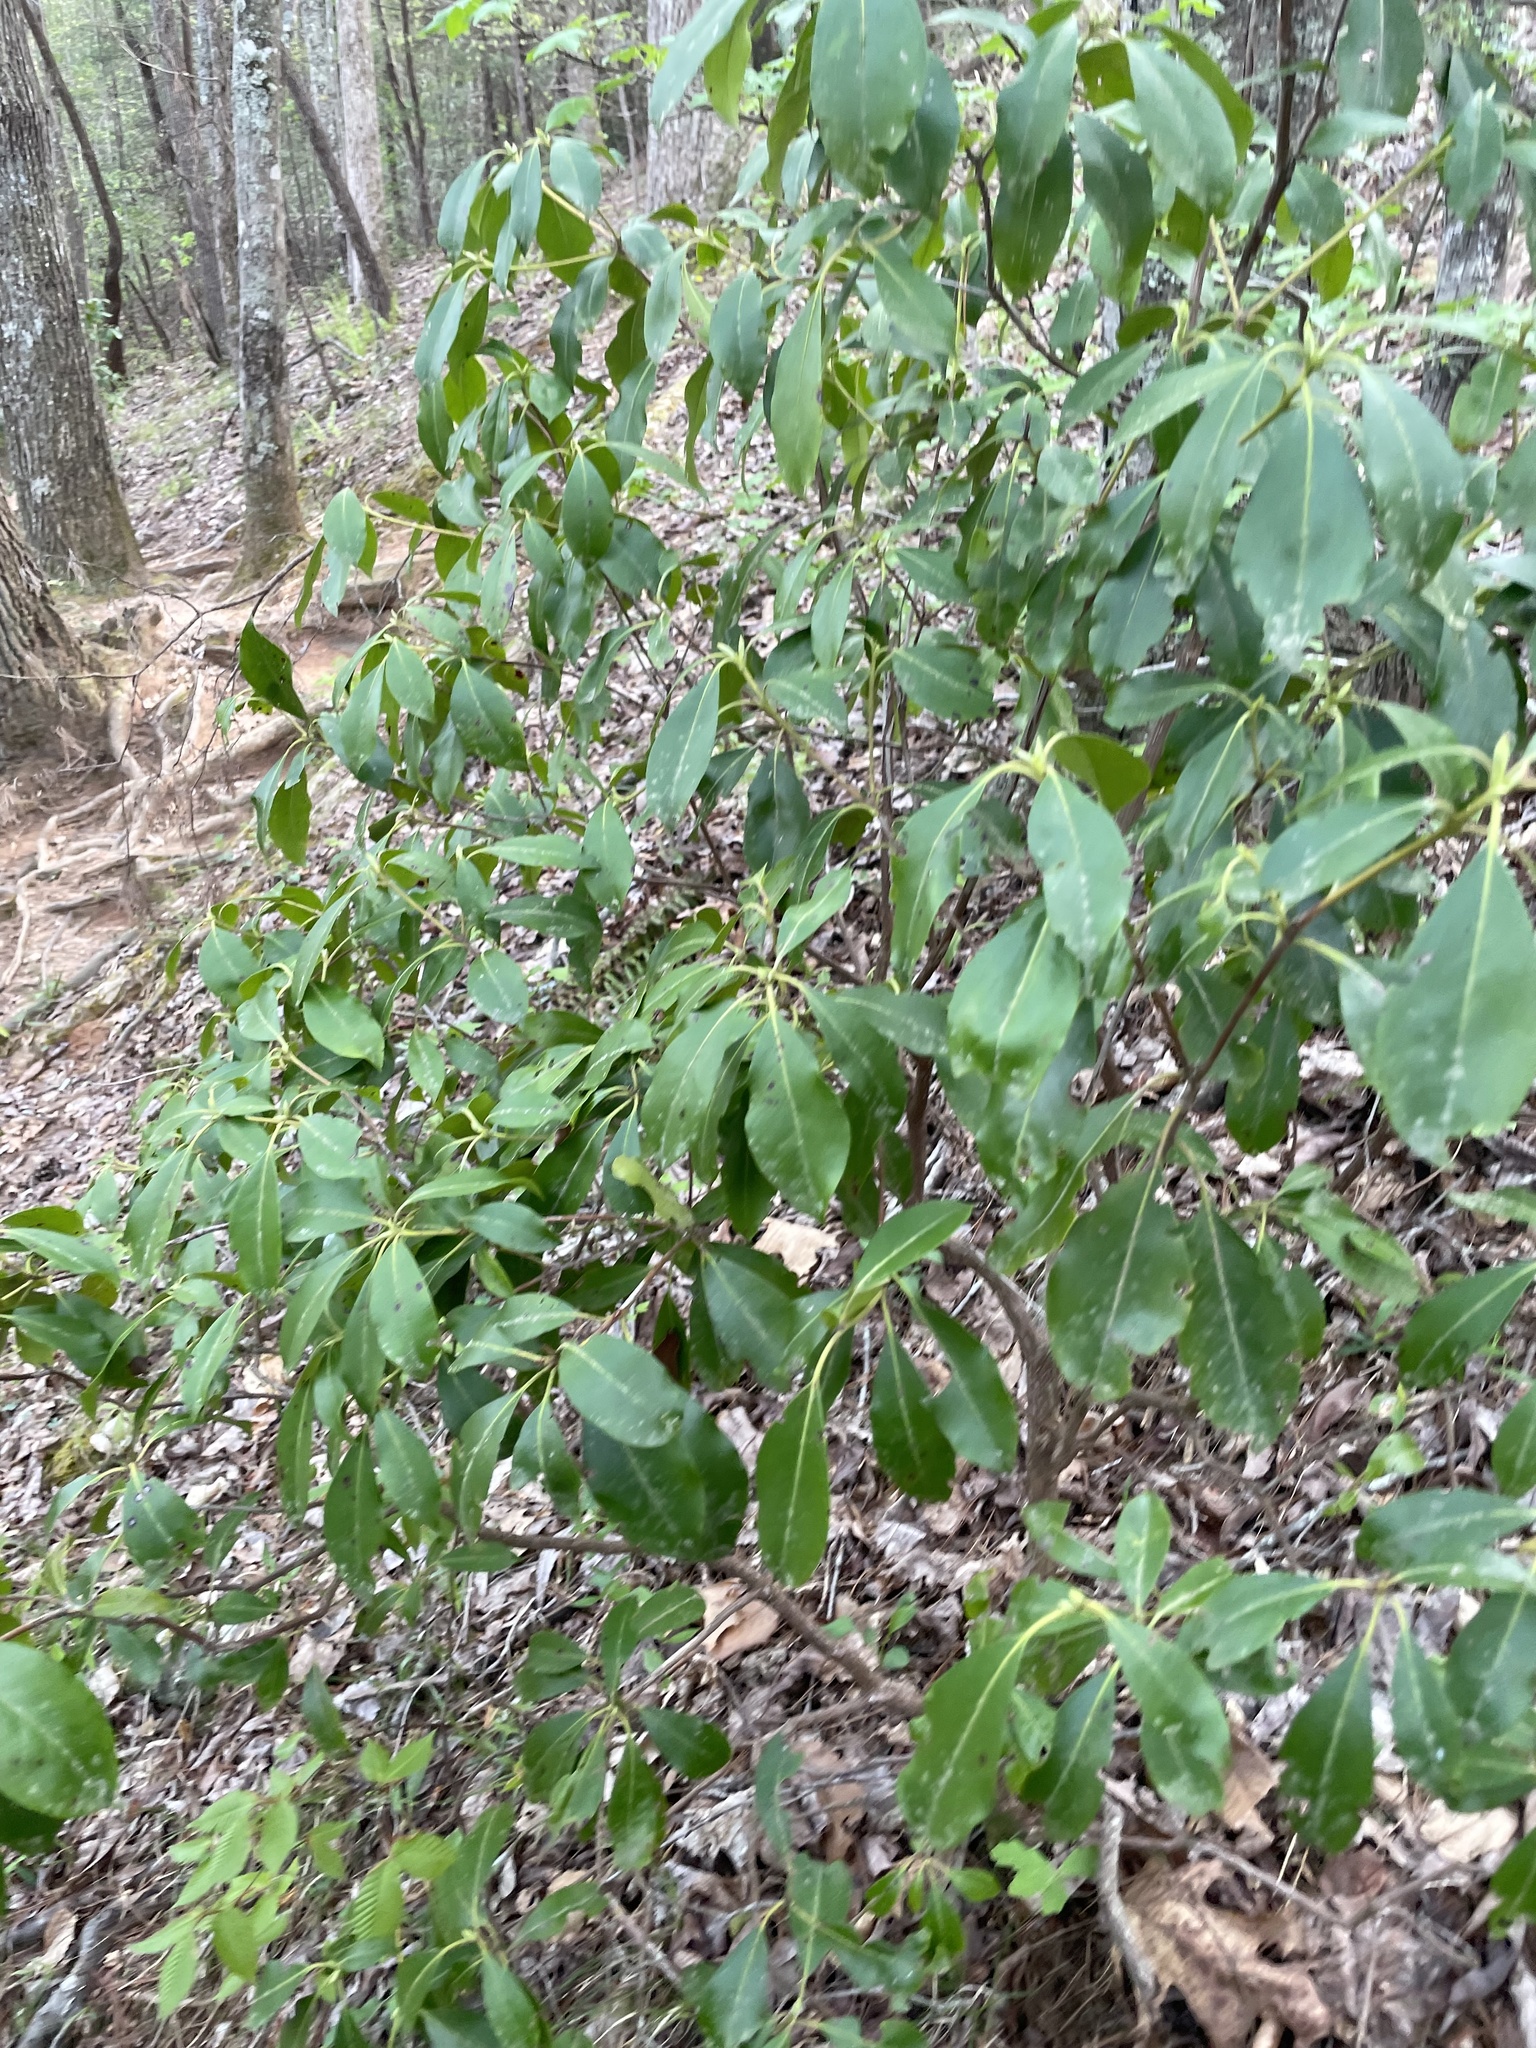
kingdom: Plantae
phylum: Tracheophyta
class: Magnoliopsida
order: Ericales
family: Ericaceae
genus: Kalmia
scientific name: Kalmia latifolia
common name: Mountain-laurel
